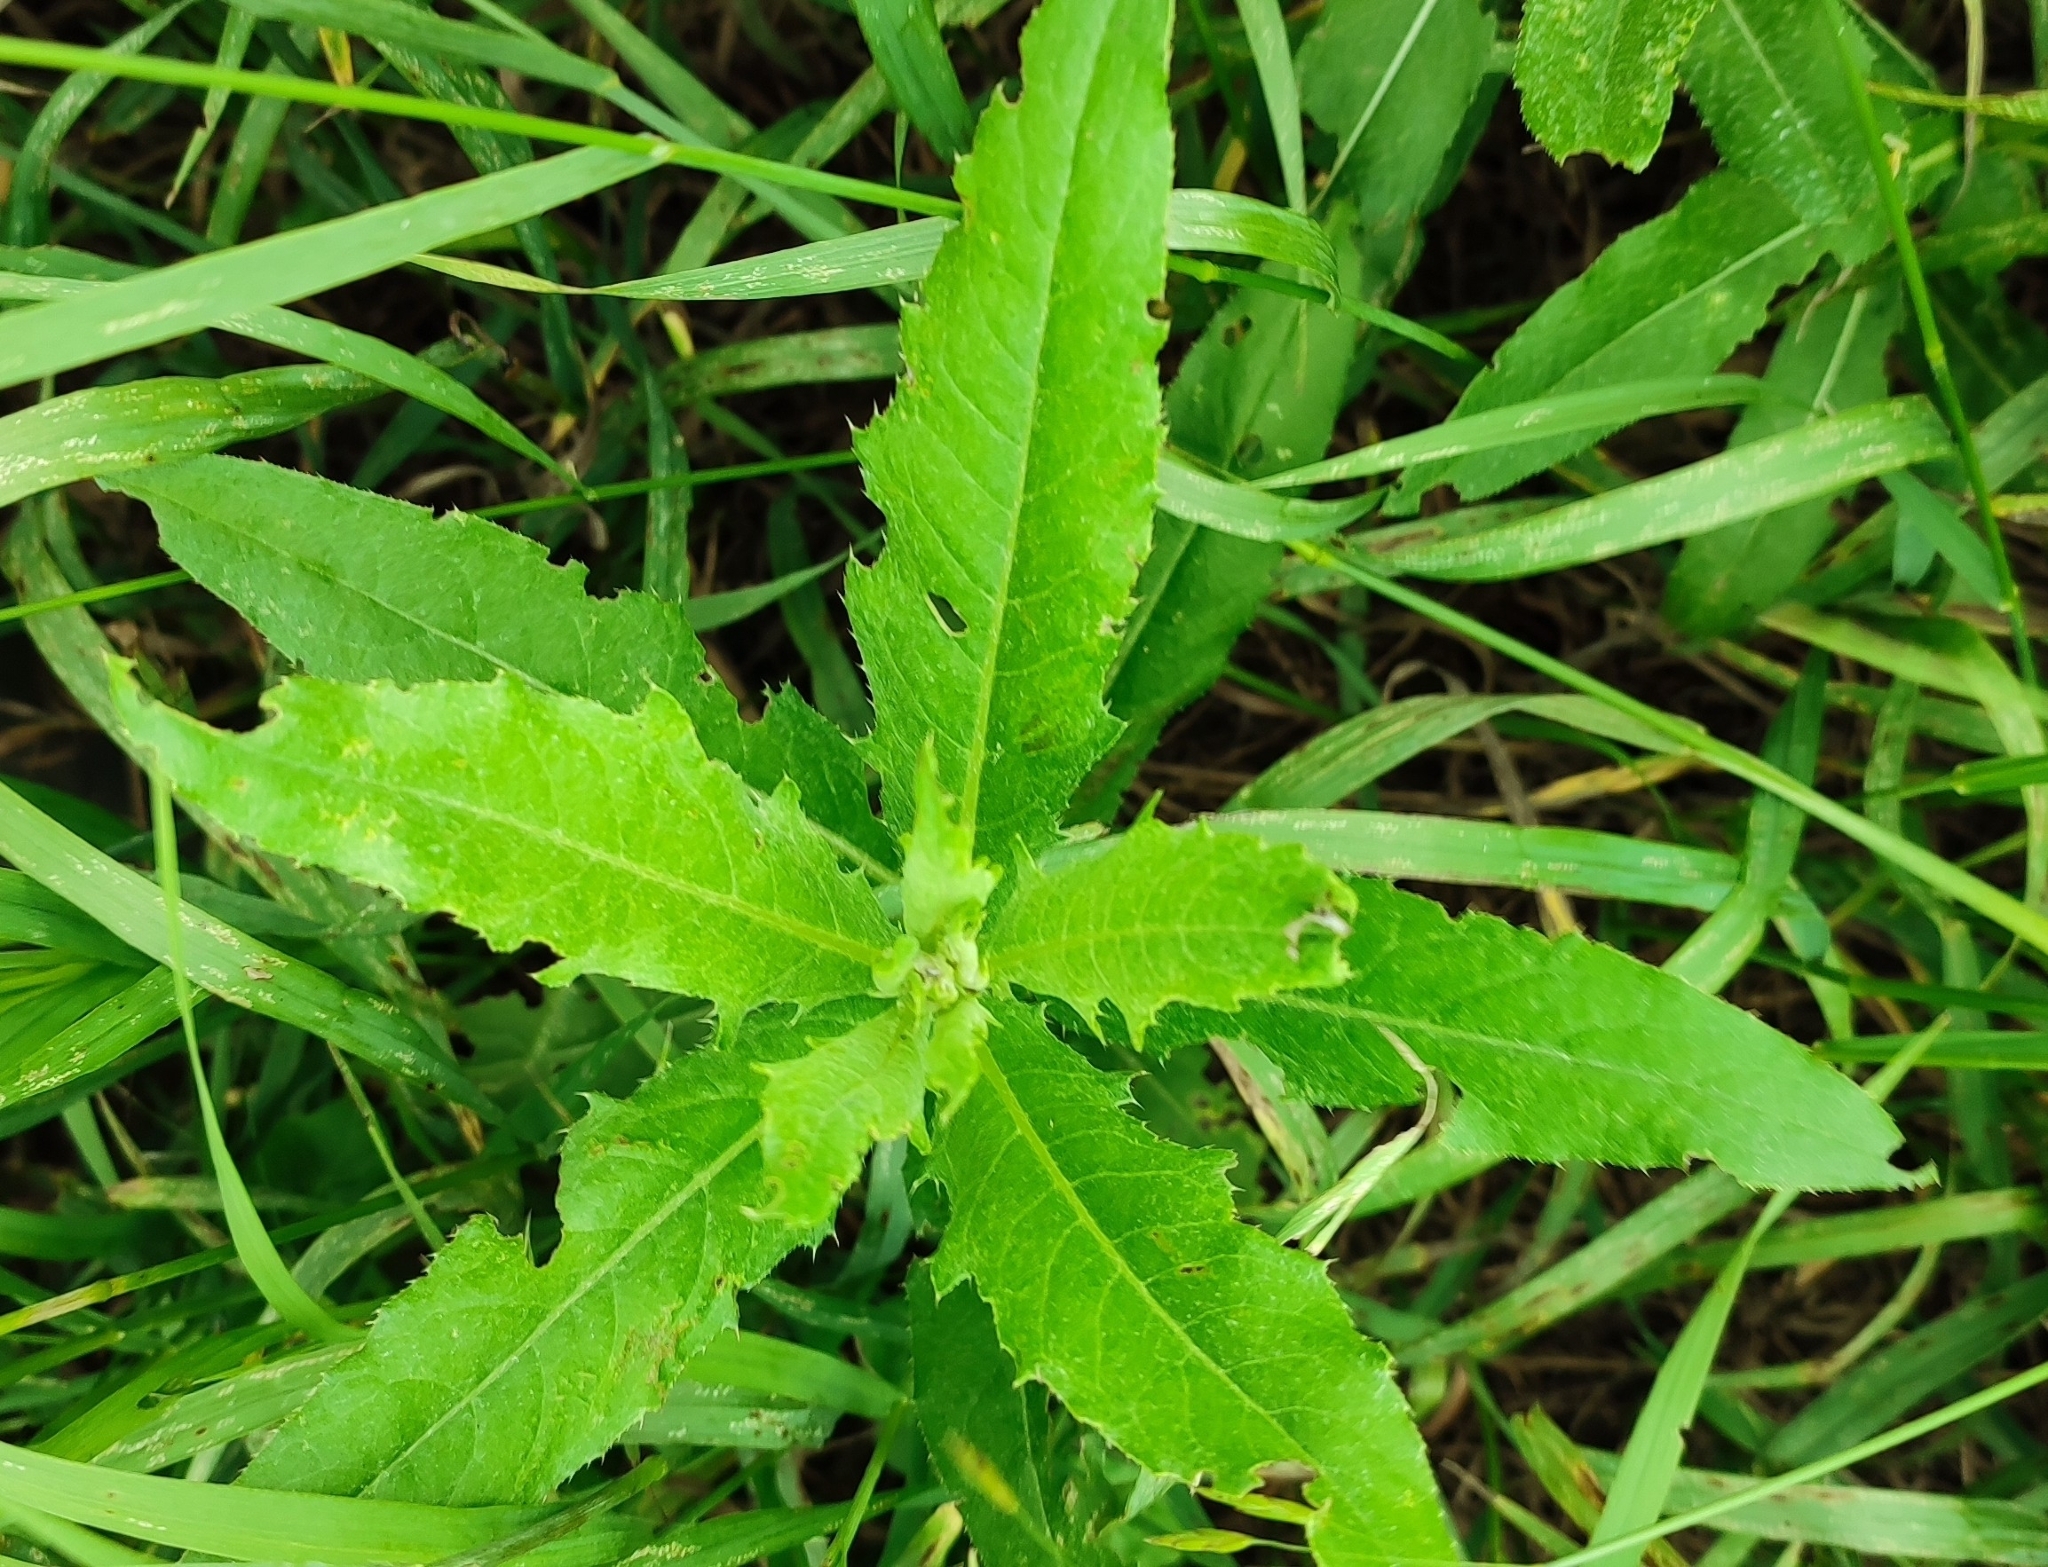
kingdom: Plantae
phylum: Tracheophyta
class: Magnoliopsida
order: Asterales
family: Asteraceae
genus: Cirsium
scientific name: Cirsium arvense
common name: Creeping thistle
